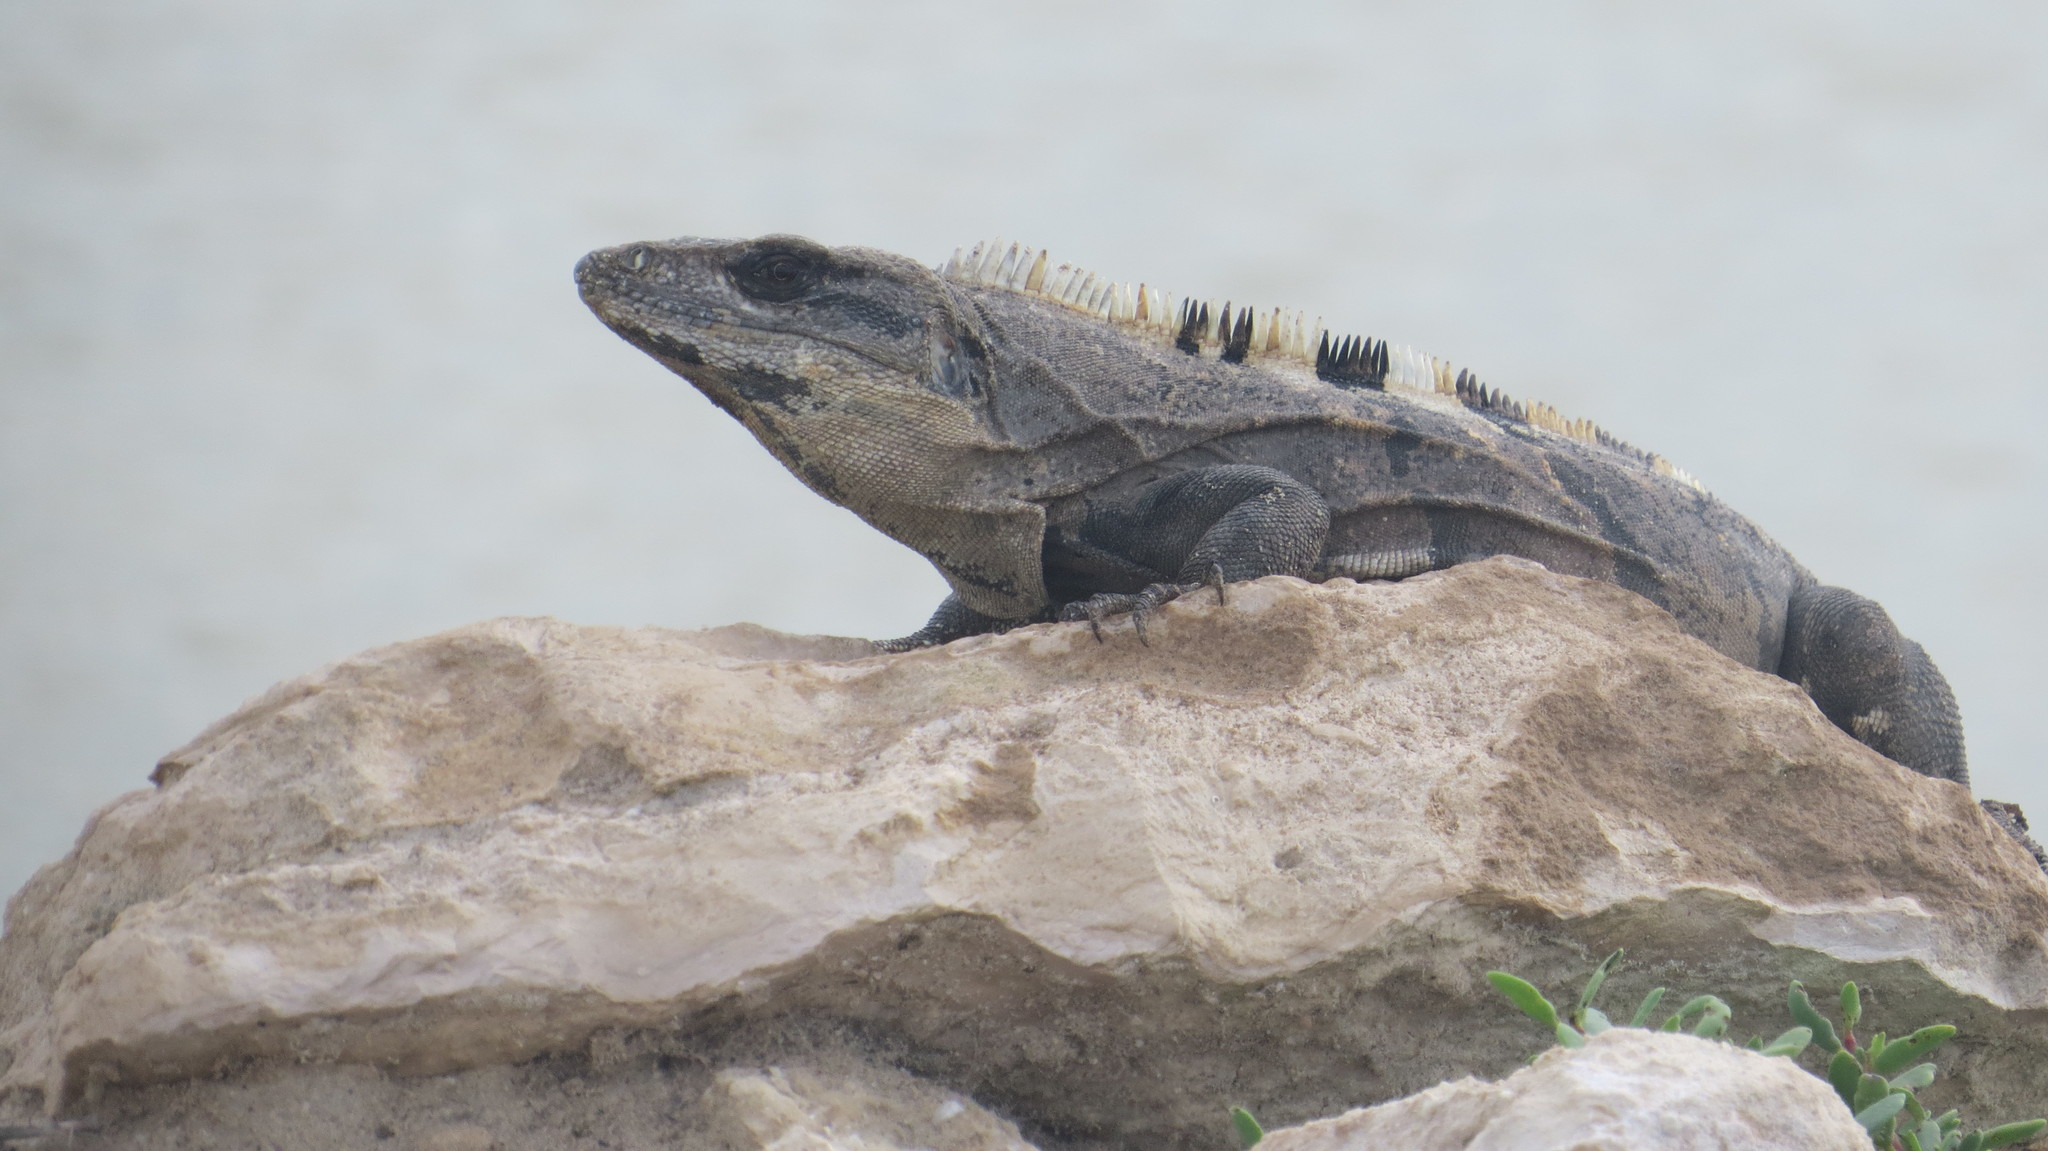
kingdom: Animalia
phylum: Chordata
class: Squamata
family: Iguanidae
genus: Ctenosaura
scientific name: Ctenosaura similis
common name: Black spiny-tailed iguana
